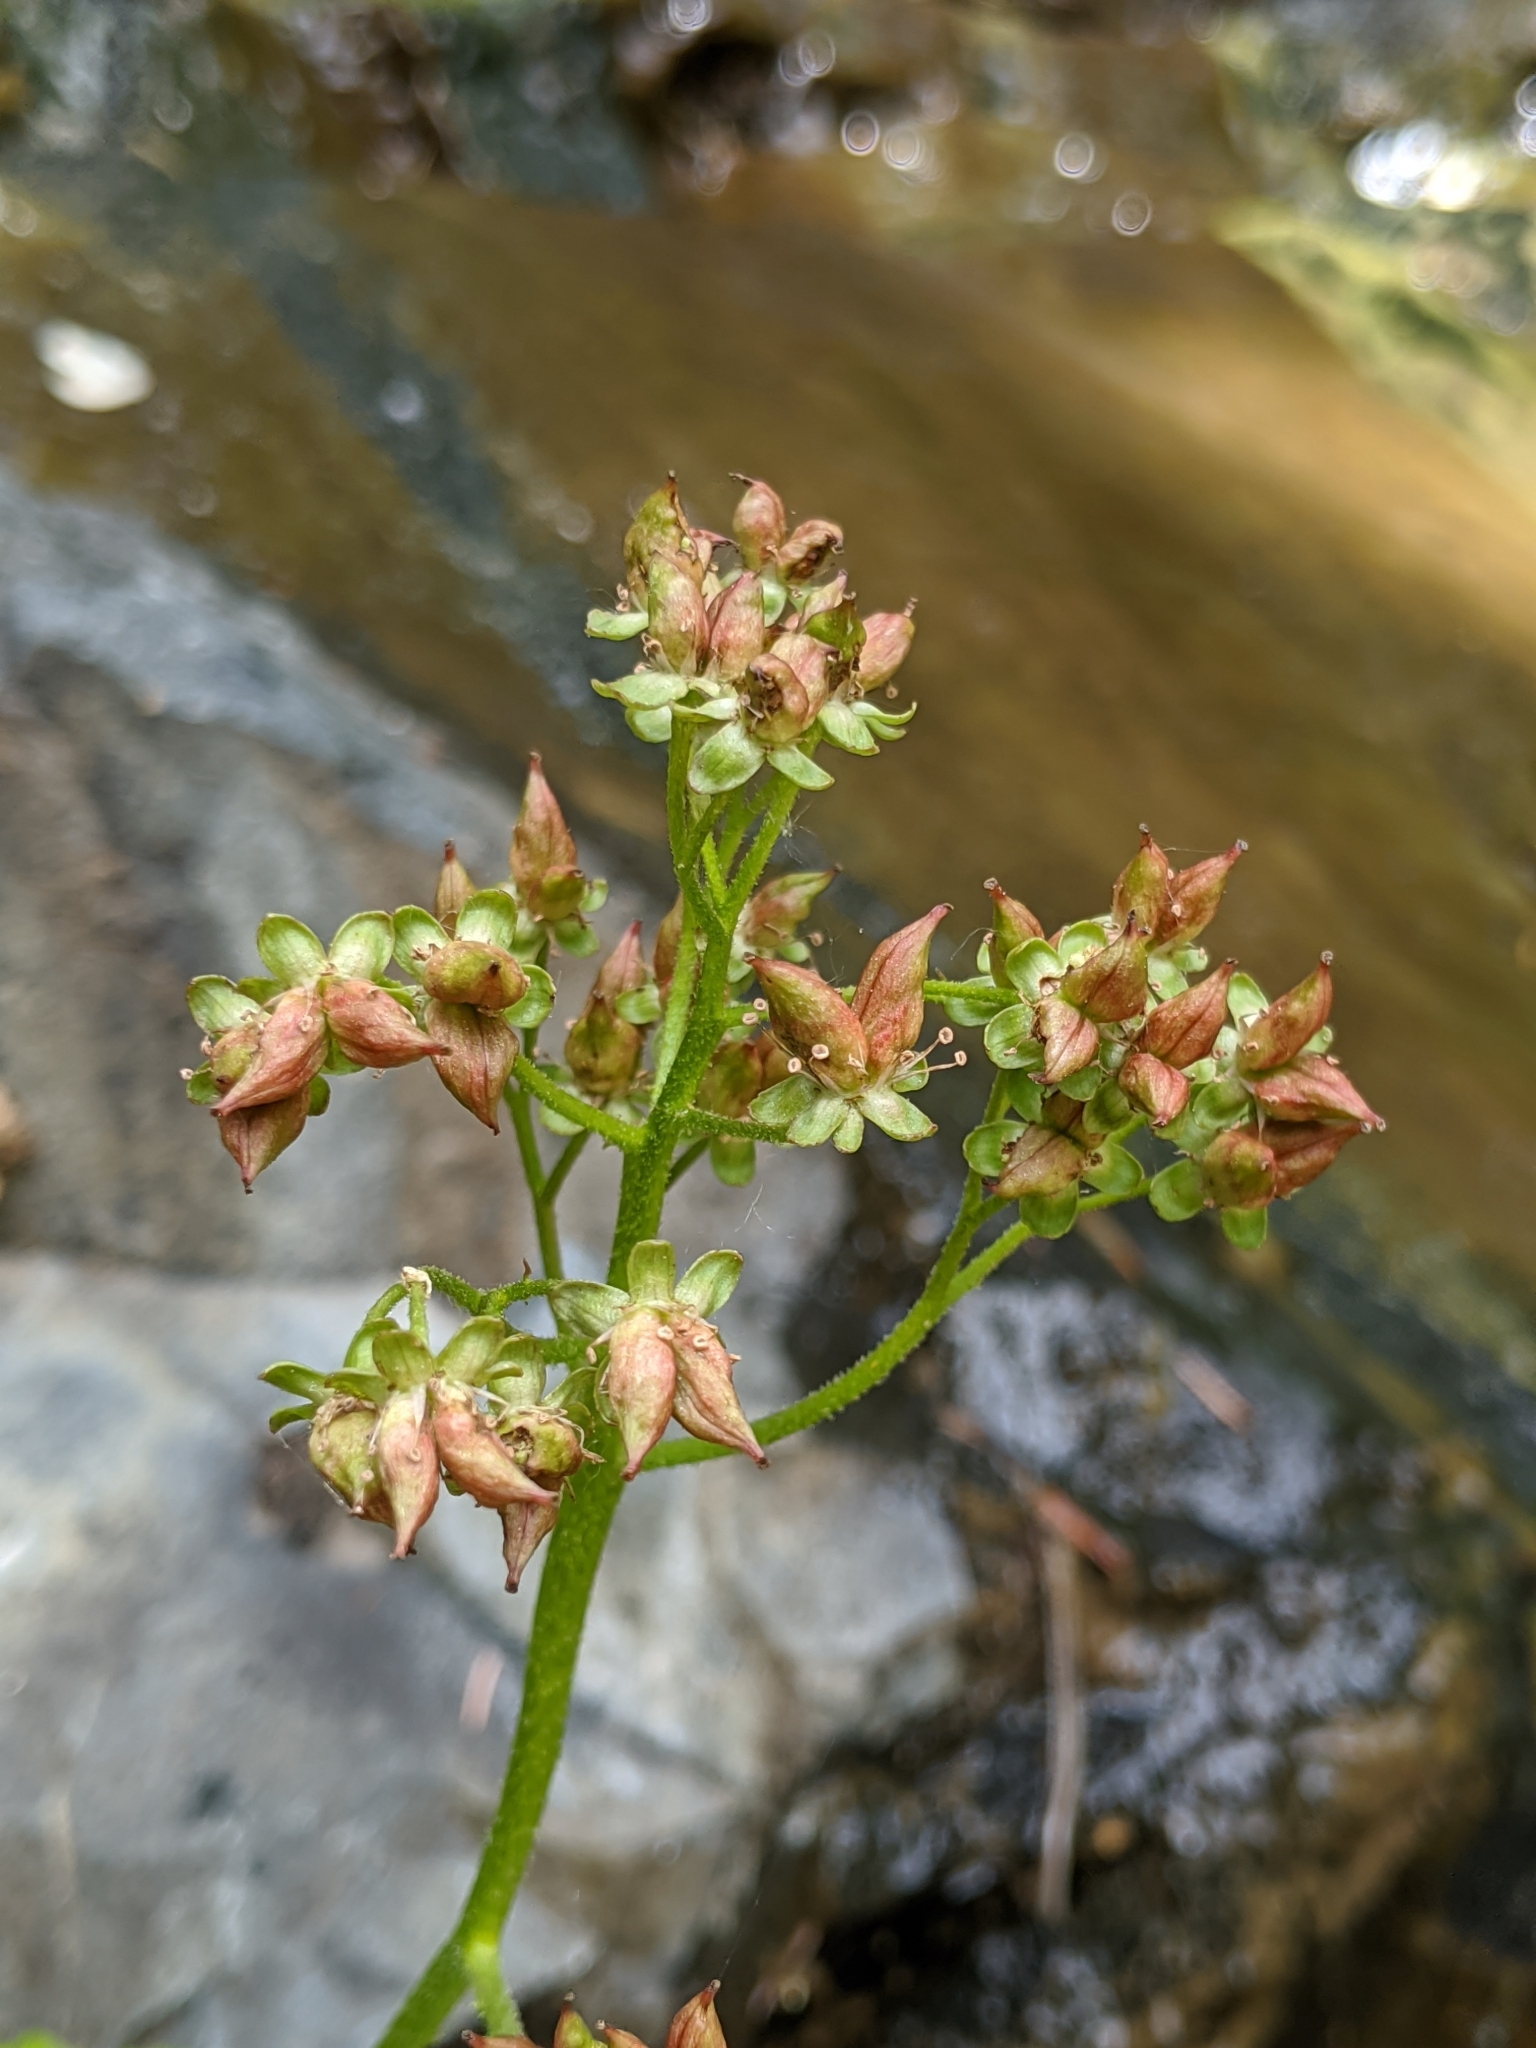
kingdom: Plantae
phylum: Tracheophyta
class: Magnoliopsida
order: Saxifragales
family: Saxifragaceae
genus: Darmera
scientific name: Darmera peltata
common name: Indian-rhubarb
